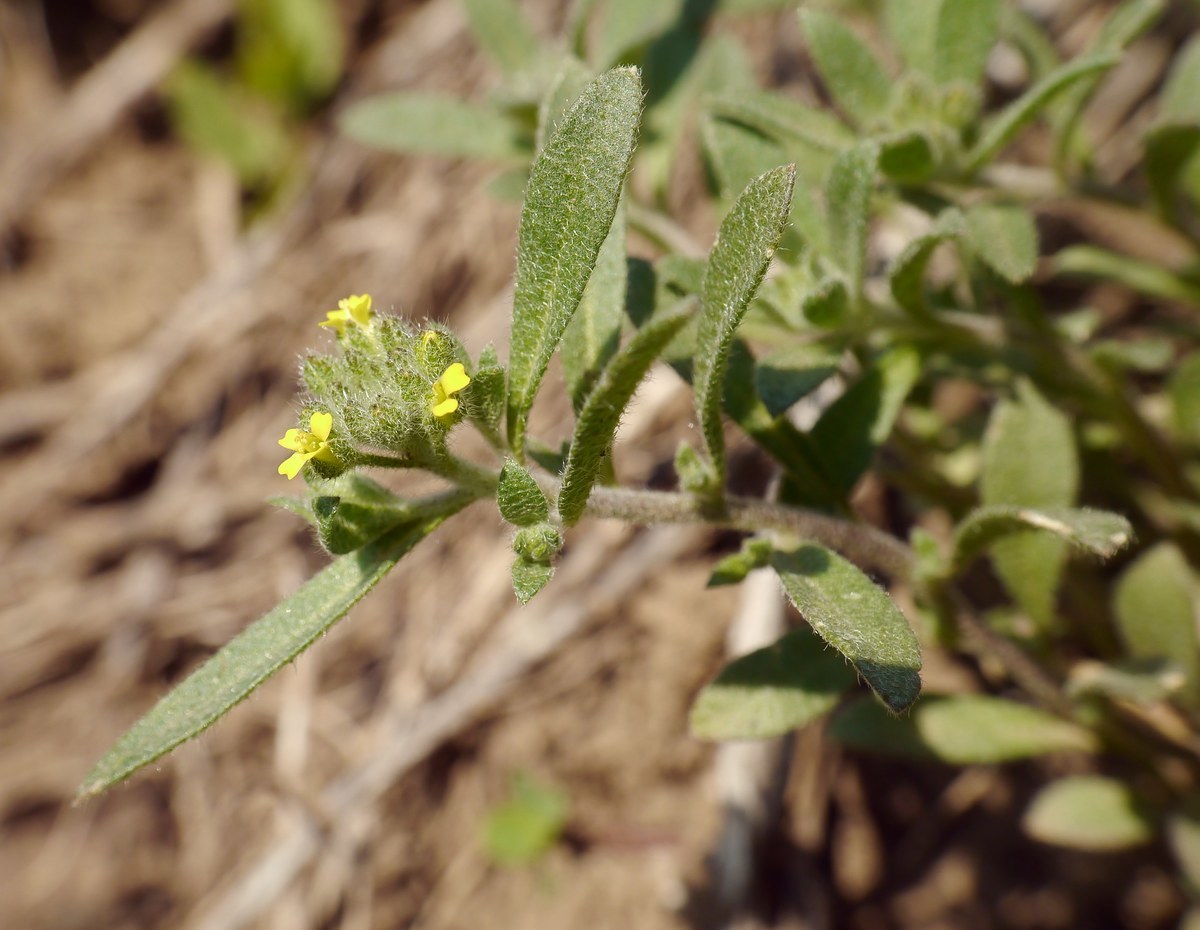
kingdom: Plantae
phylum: Tracheophyta
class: Magnoliopsida
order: Brassicales
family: Brassicaceae
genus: Meniocus
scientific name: Meniocus linifolius
